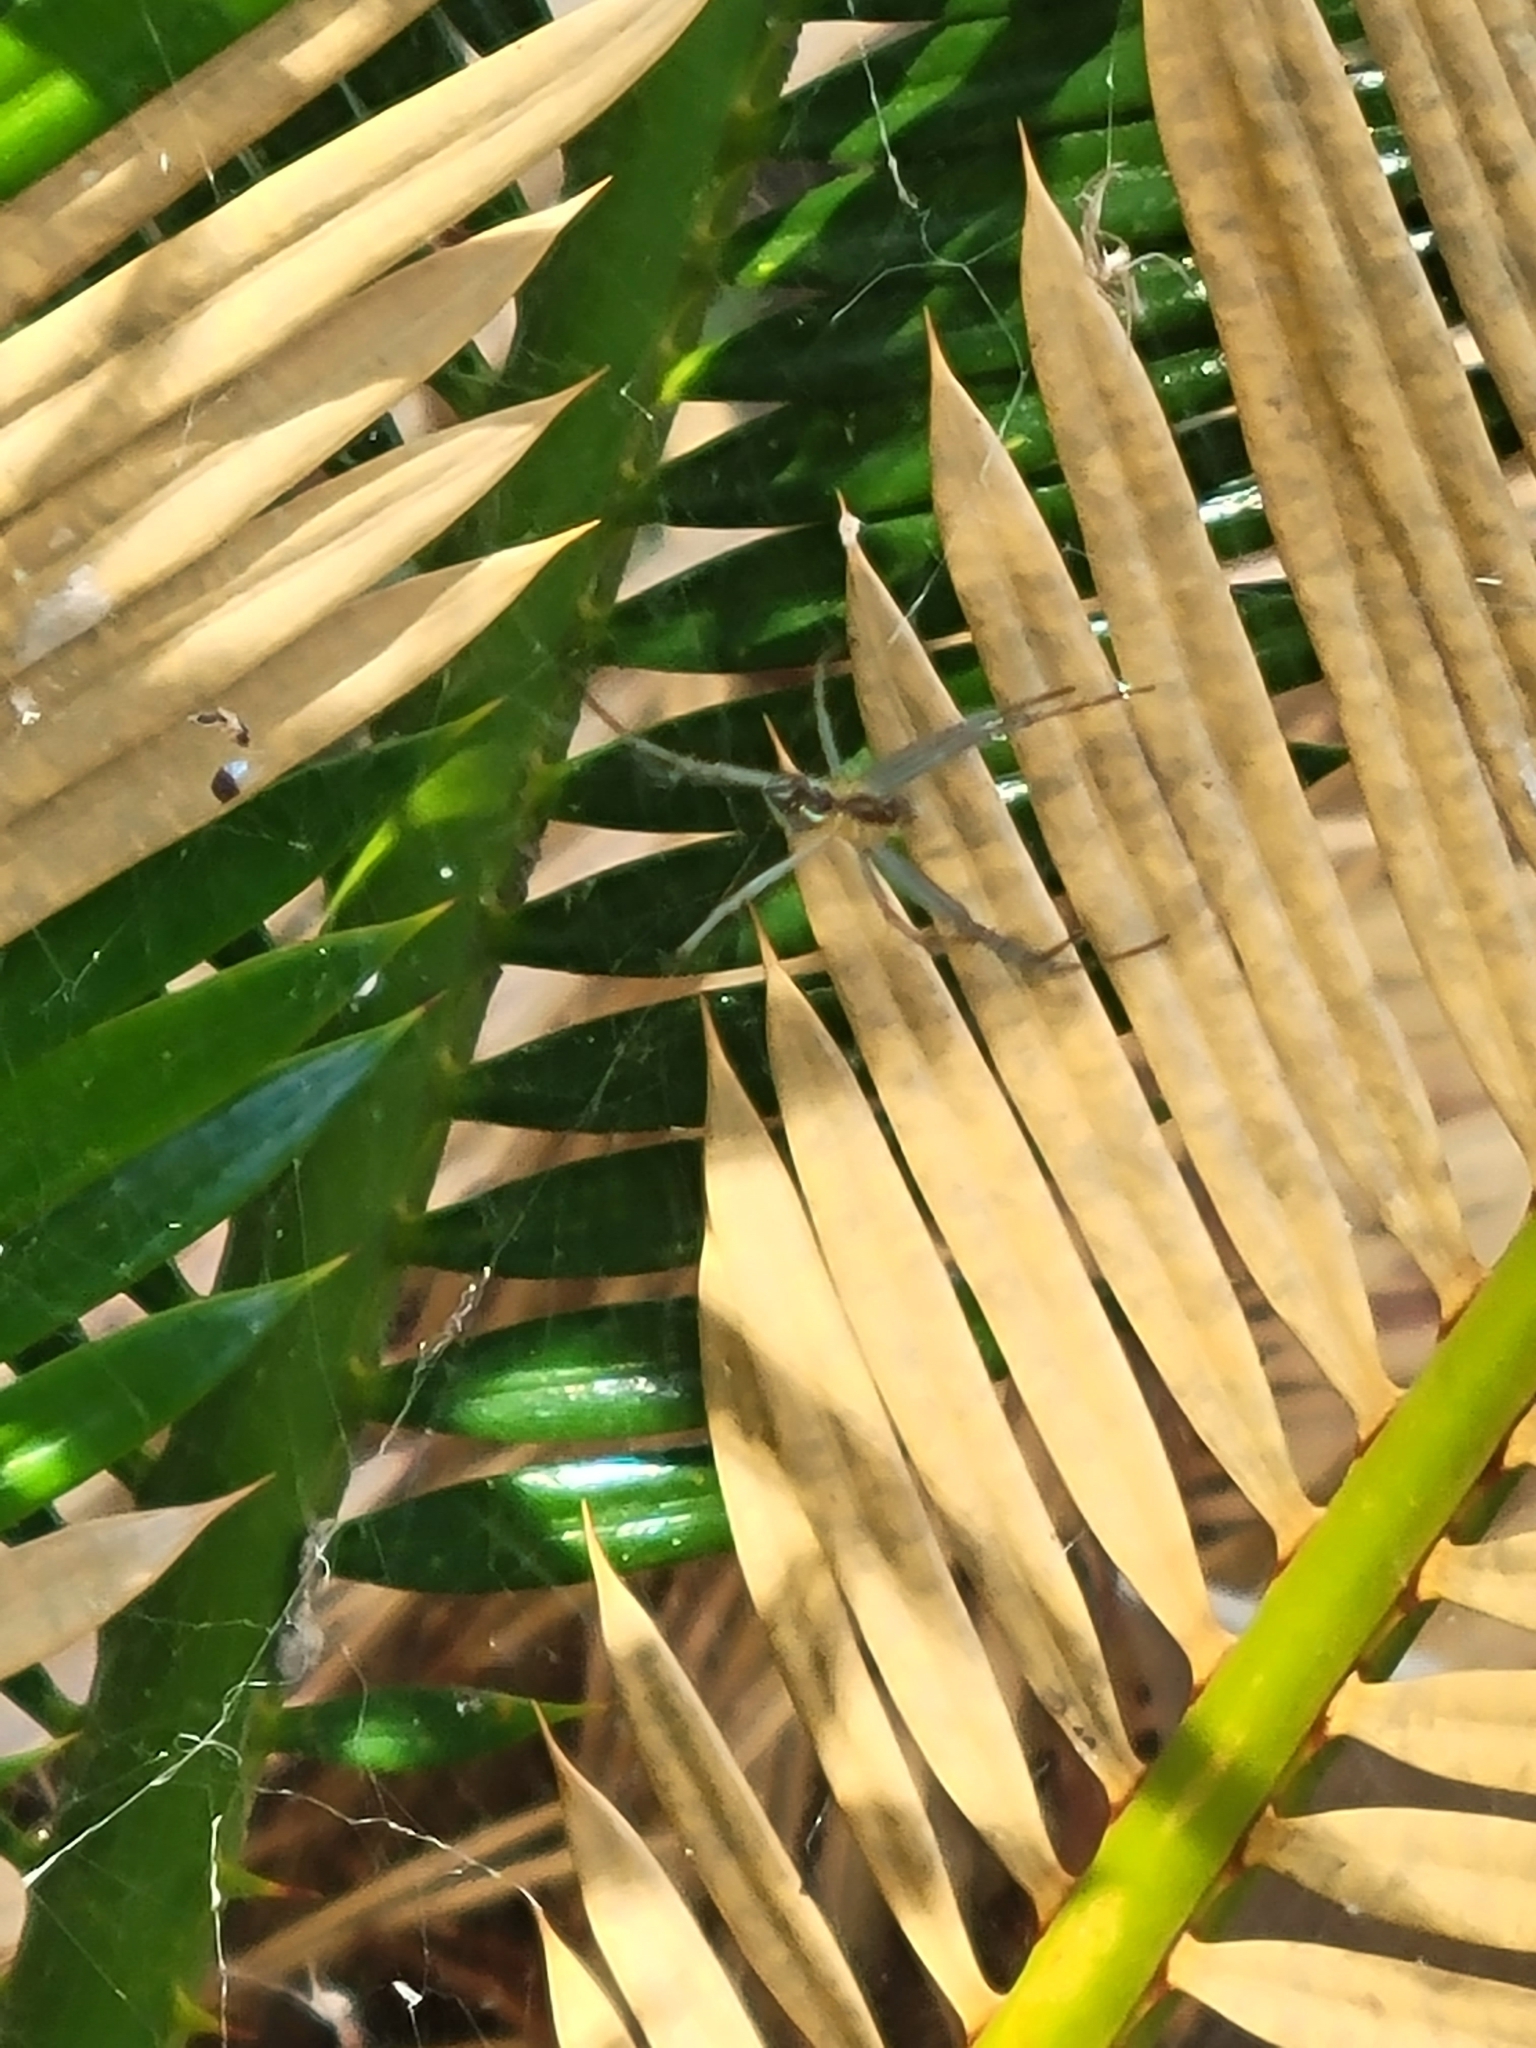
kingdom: Animalia
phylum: Arthropoda
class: Arachnida
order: Araneae
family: Araneidae
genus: Mecynogea
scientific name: Mecynogea lemniscata
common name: Orb weavers
